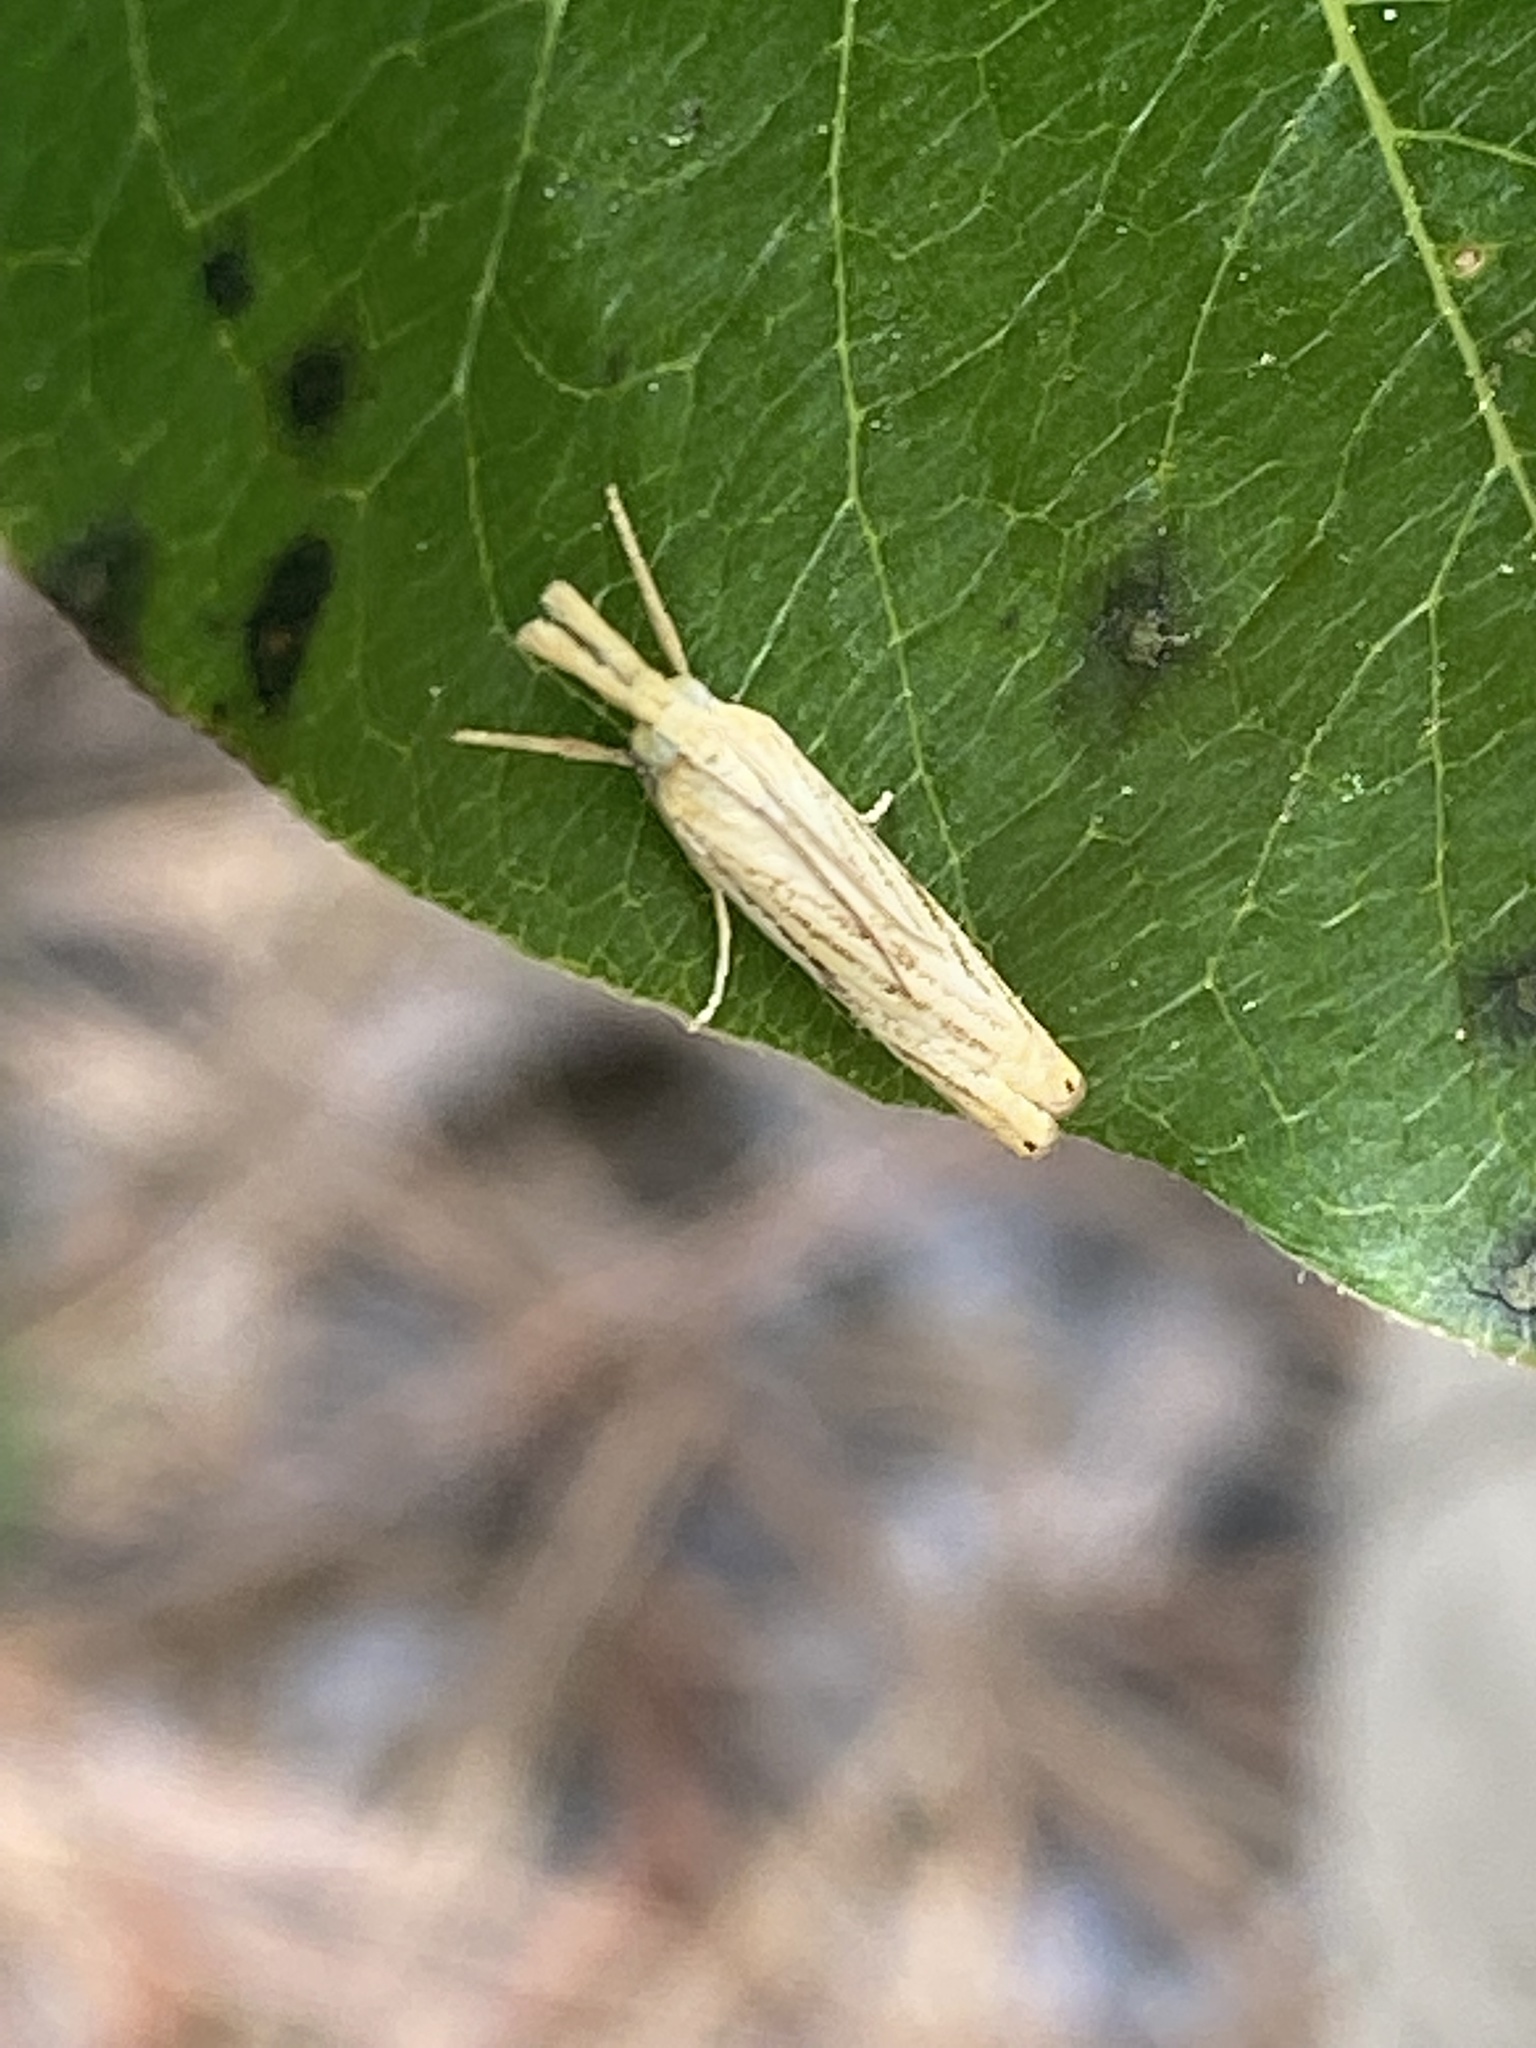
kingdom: Animalia
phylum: Arthropoda
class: Insecta
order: Lepidoptera
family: Crambidae
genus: Crambus
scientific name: Crambus saltuellus
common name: Pasture grass-veneer
